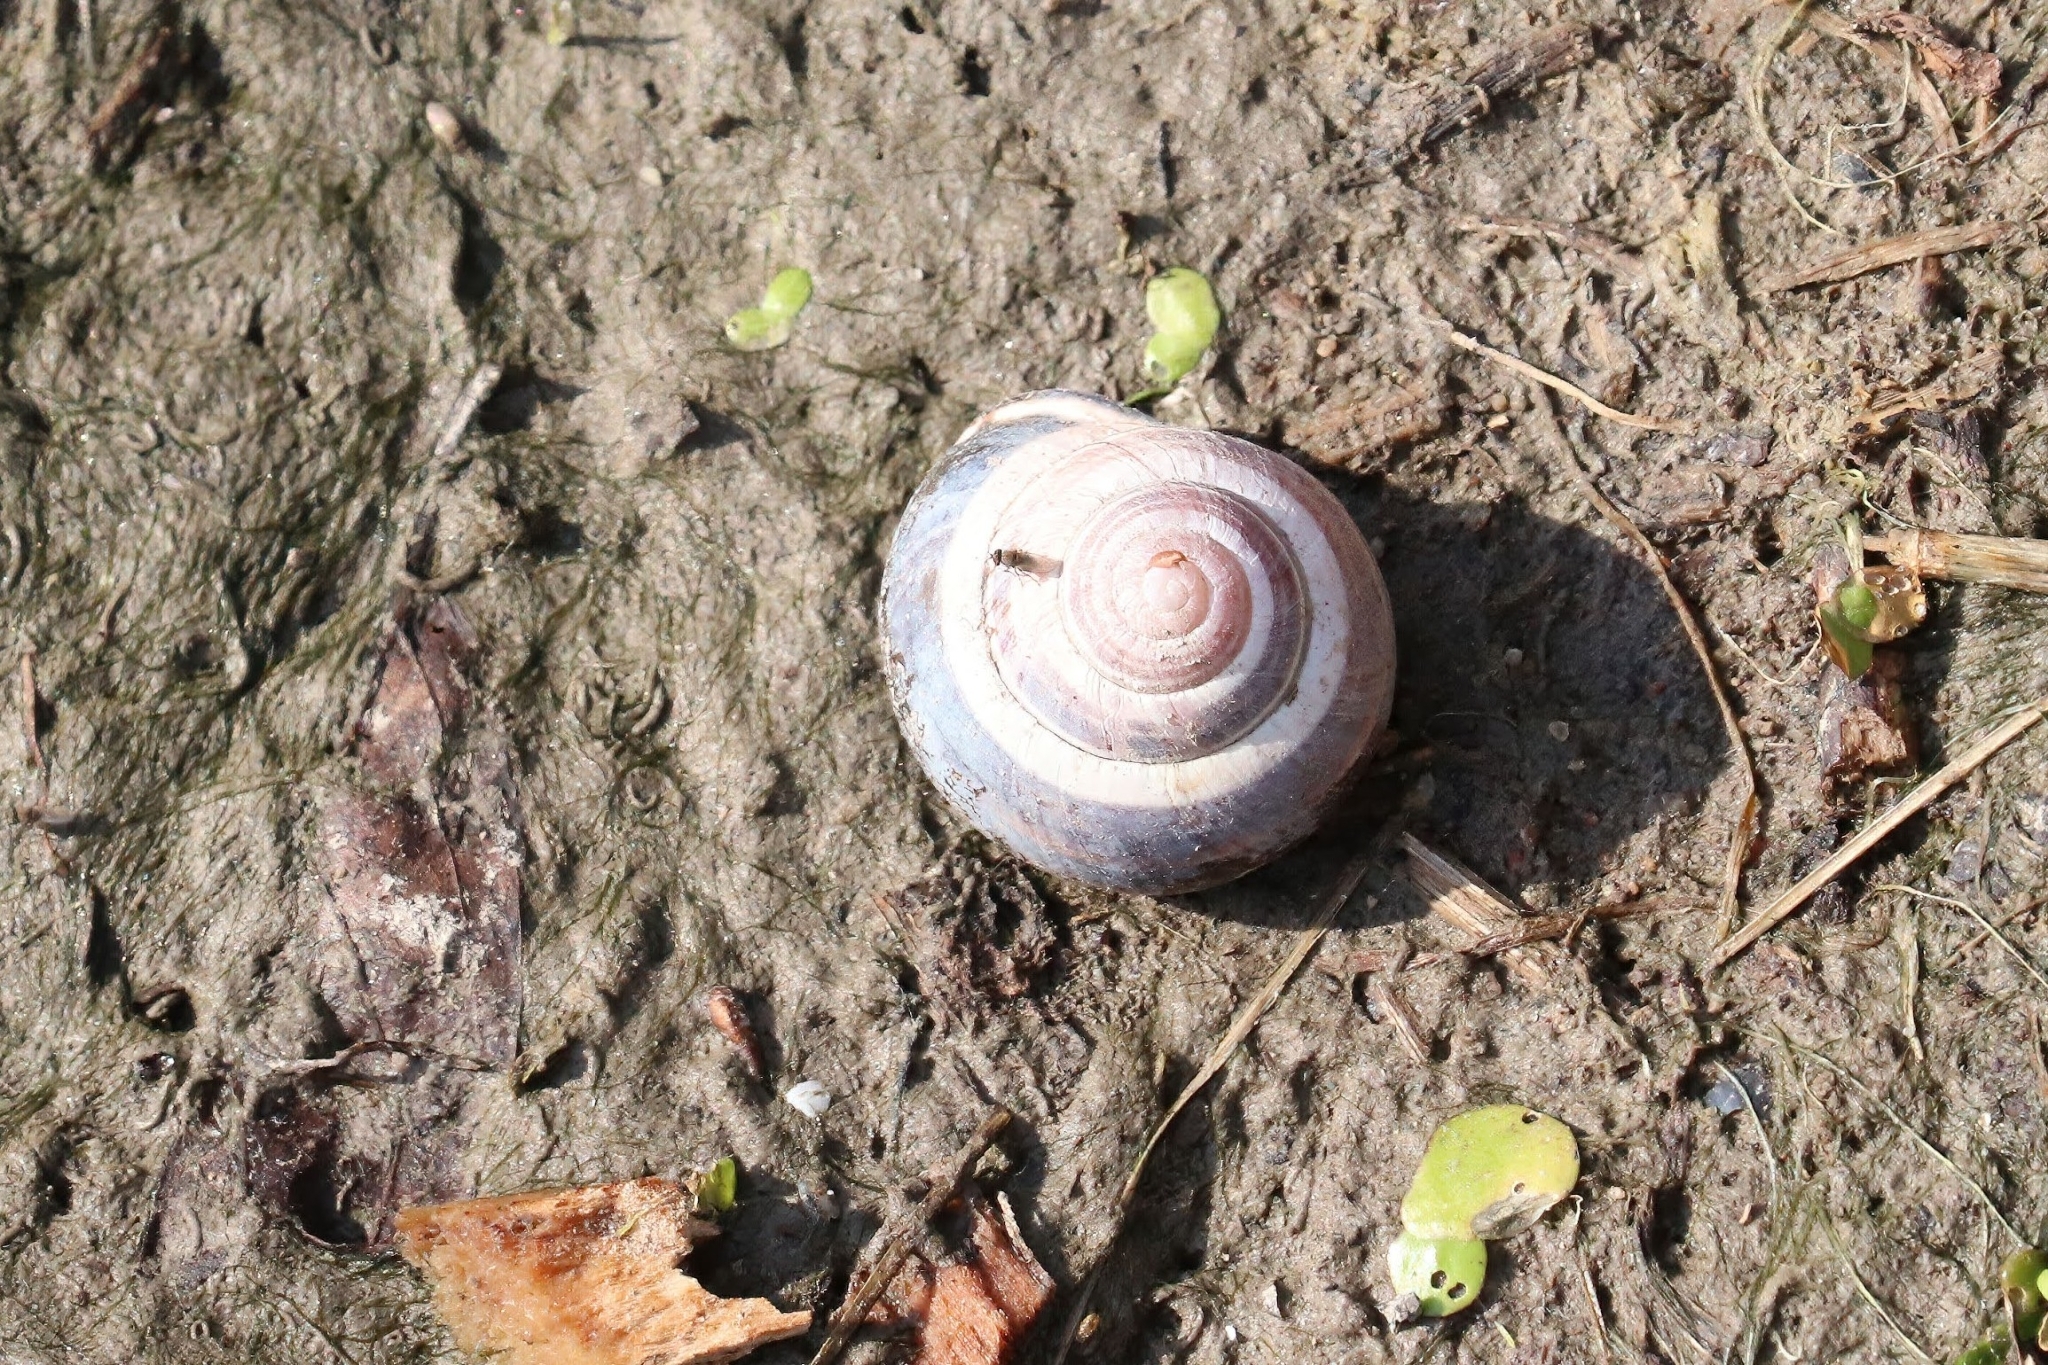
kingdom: Animalia
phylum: Mollusca
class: Gastropoda
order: Stylommatophora
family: Helicidae
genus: Cepaea
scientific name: Cepaea nemoralis
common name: Grovesnail
